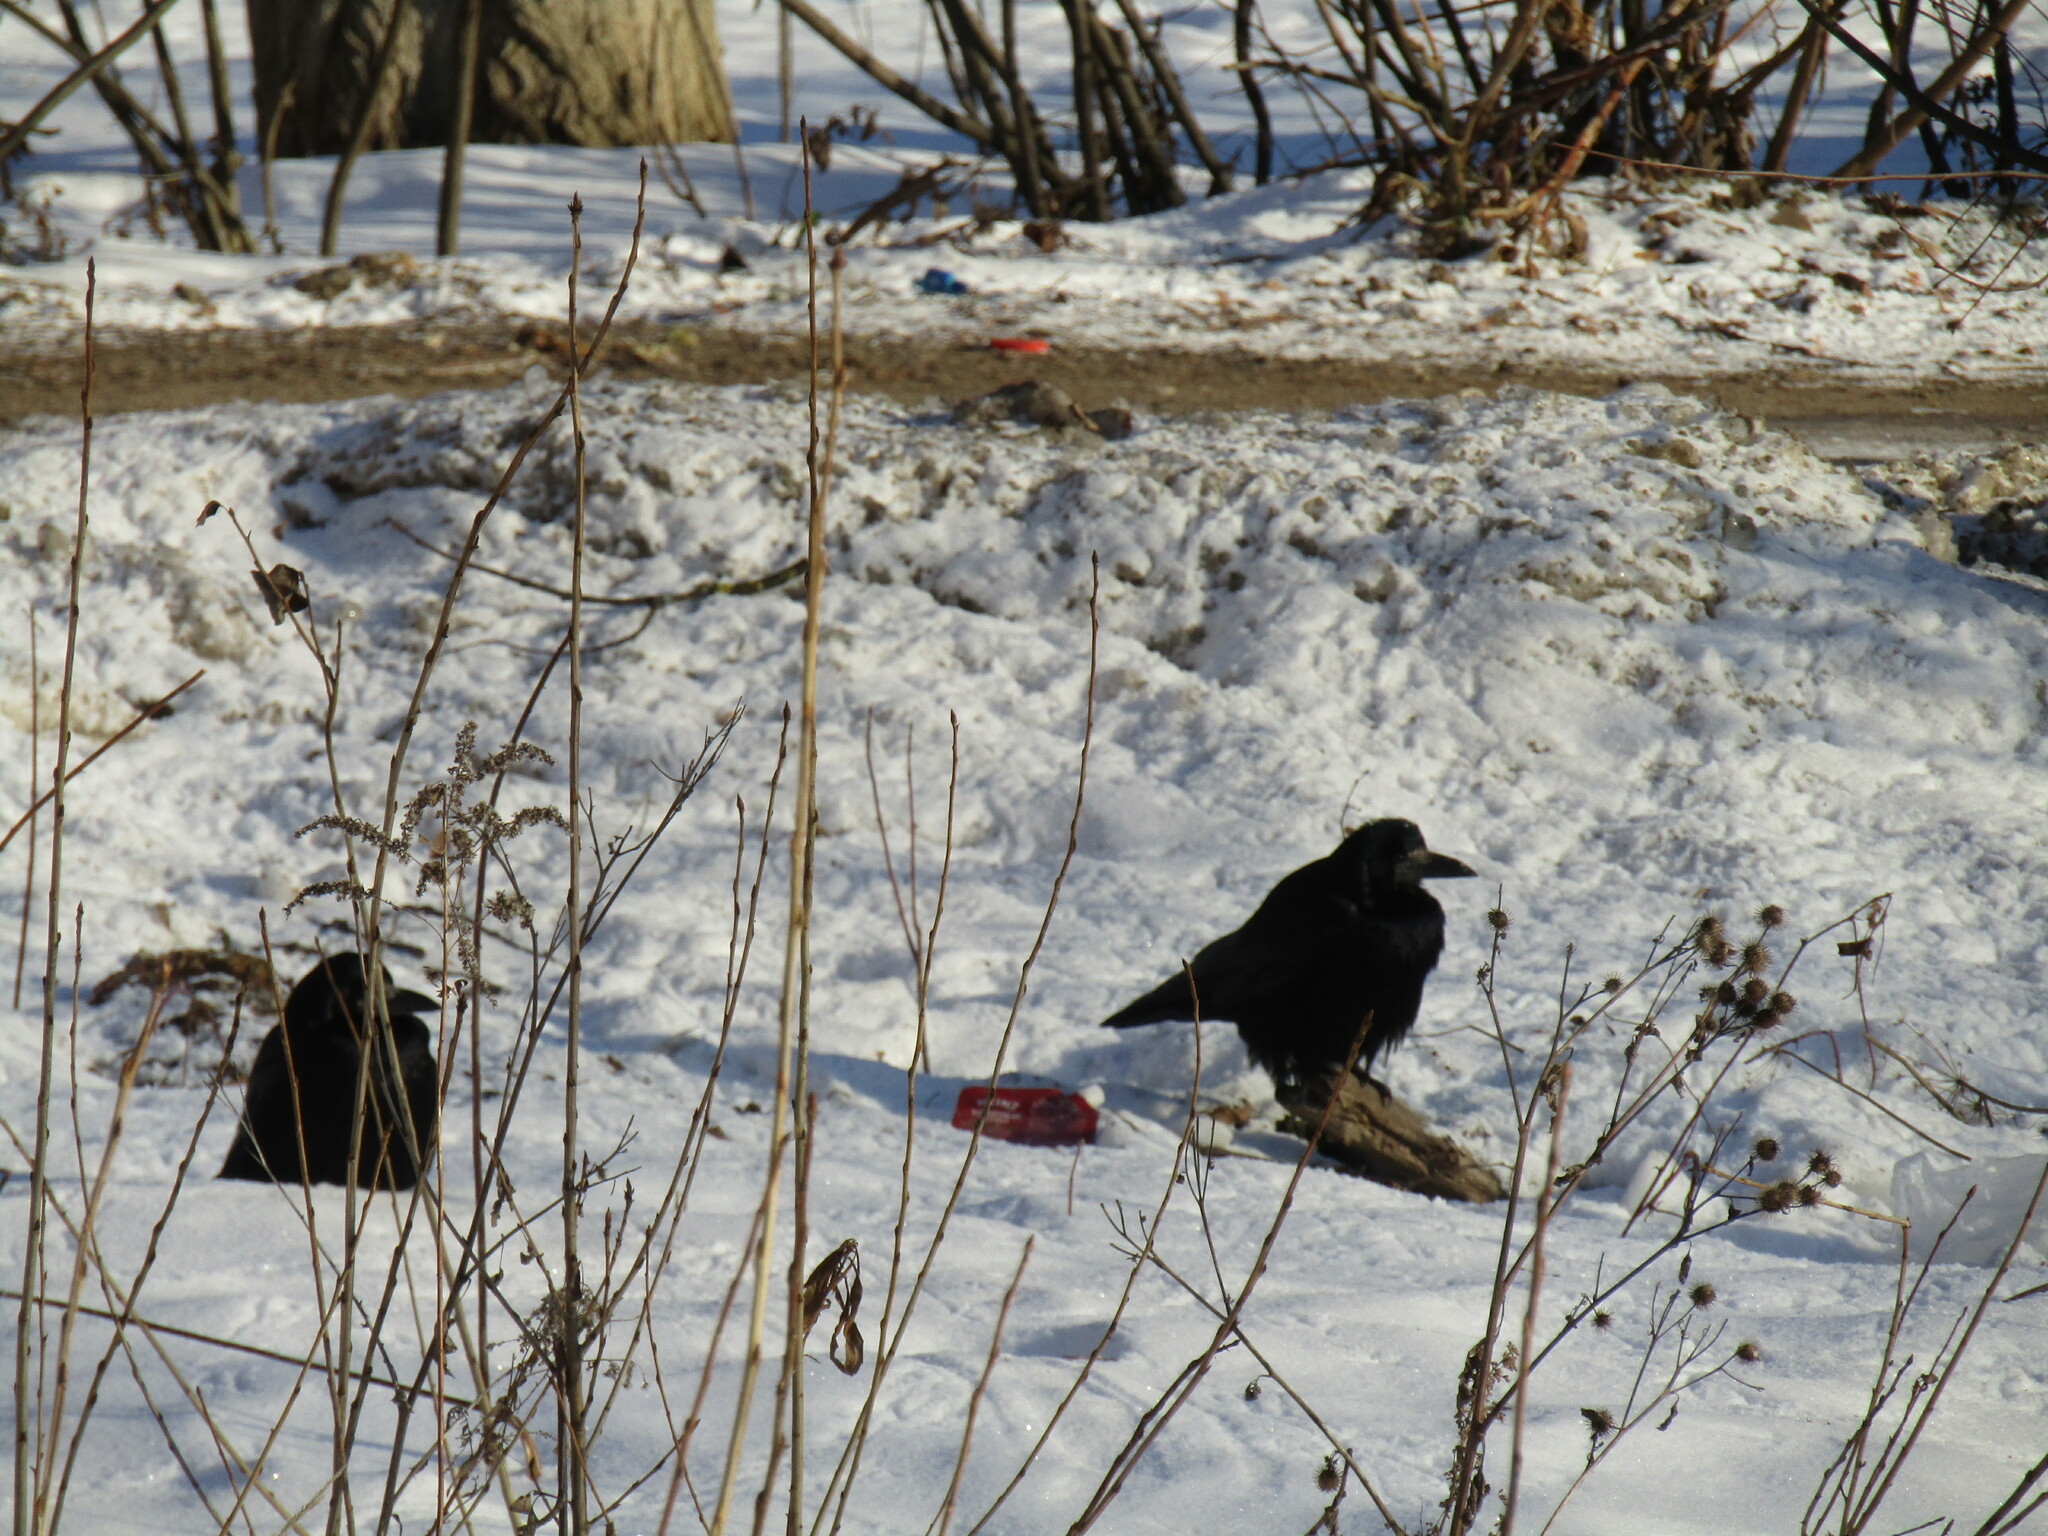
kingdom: Animalia
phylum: Chordata
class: Aves
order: Passeriformes
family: Corvidae
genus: Corvus
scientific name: Corvus frugilegus
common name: Rook
